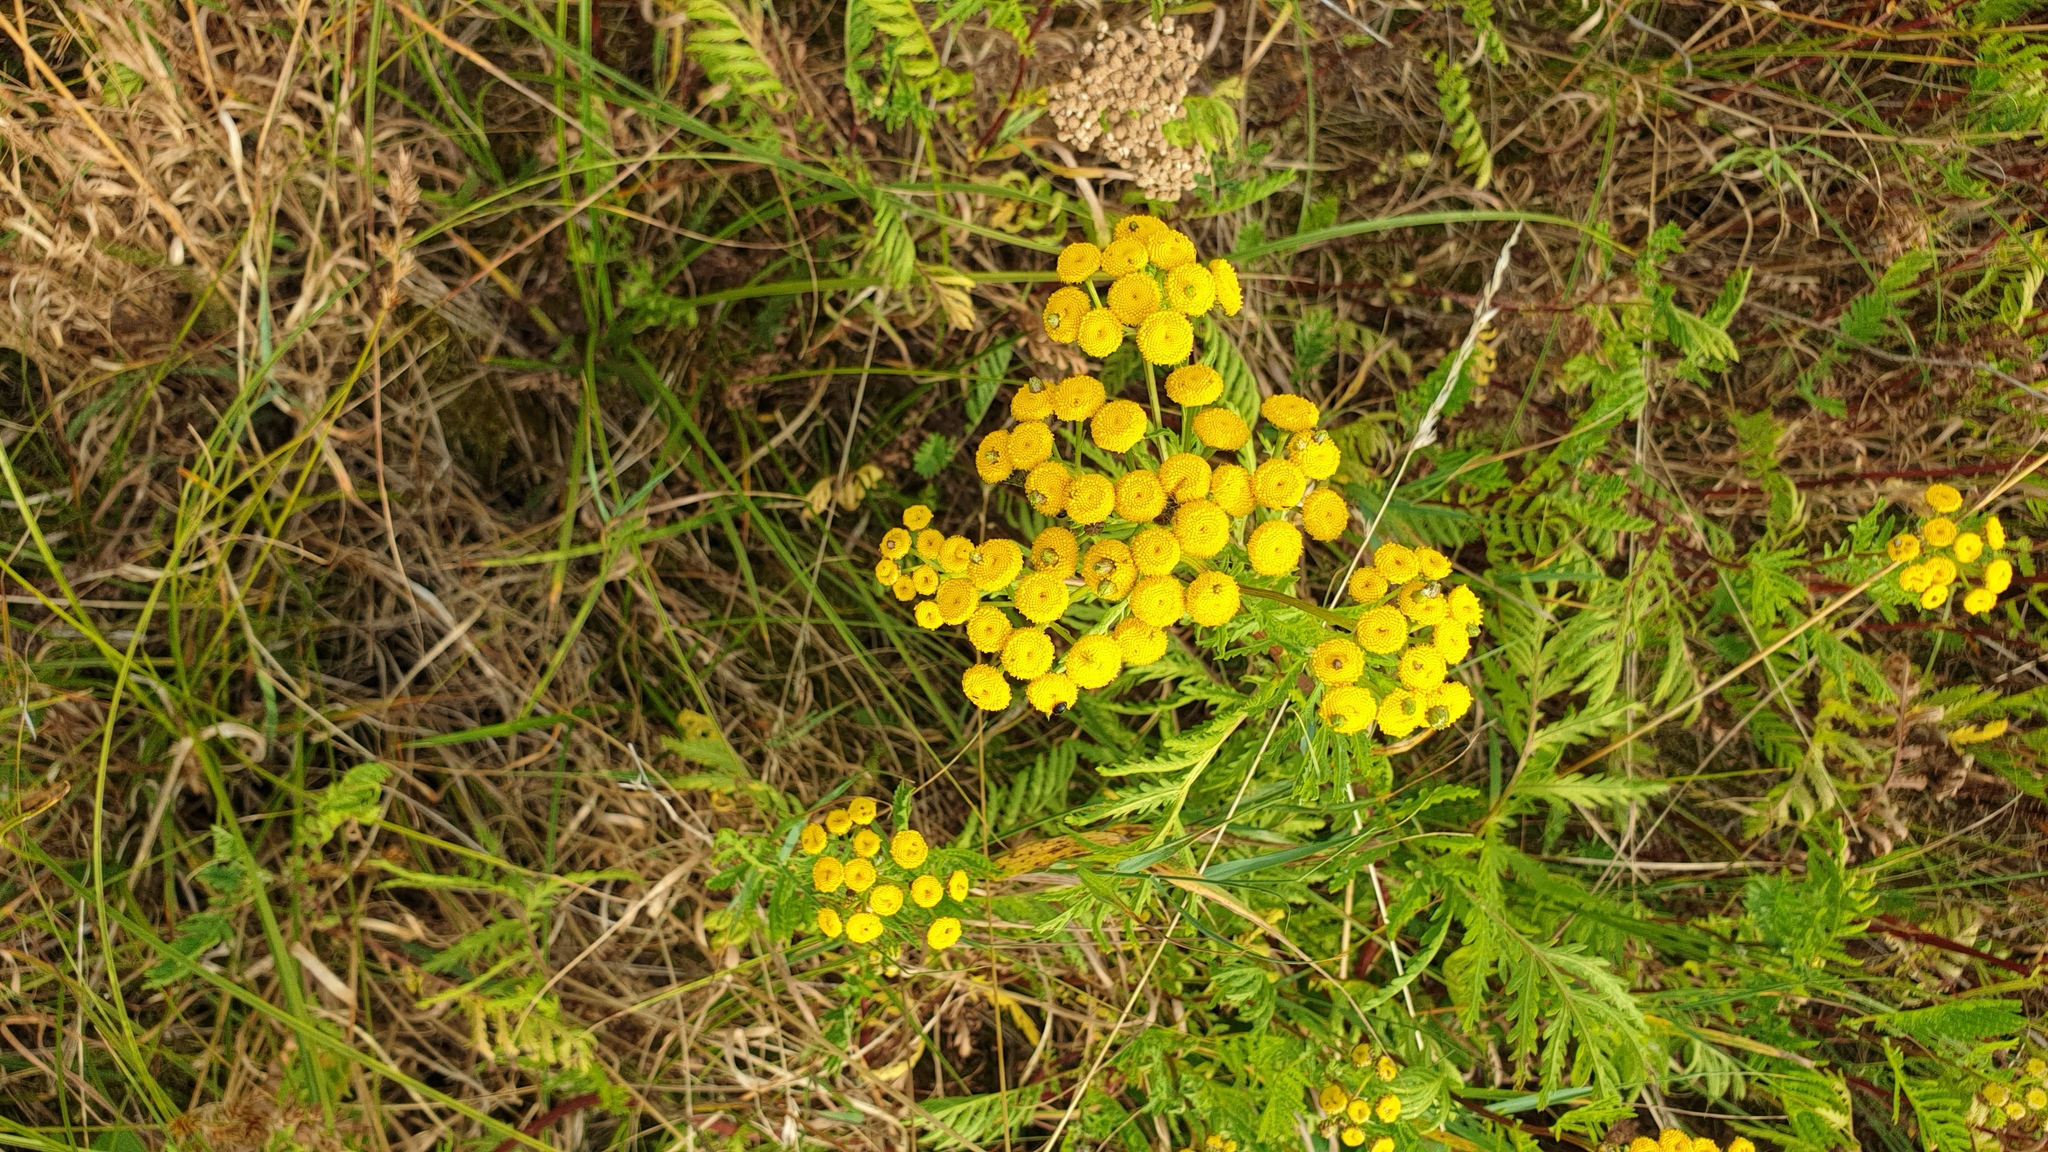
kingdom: Plantae
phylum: Tracheophyta
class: Magnoliopsida
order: Asterales
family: Asteraceae
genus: Tanacetum
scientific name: Tanacetum vulgare
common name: Common tansy
